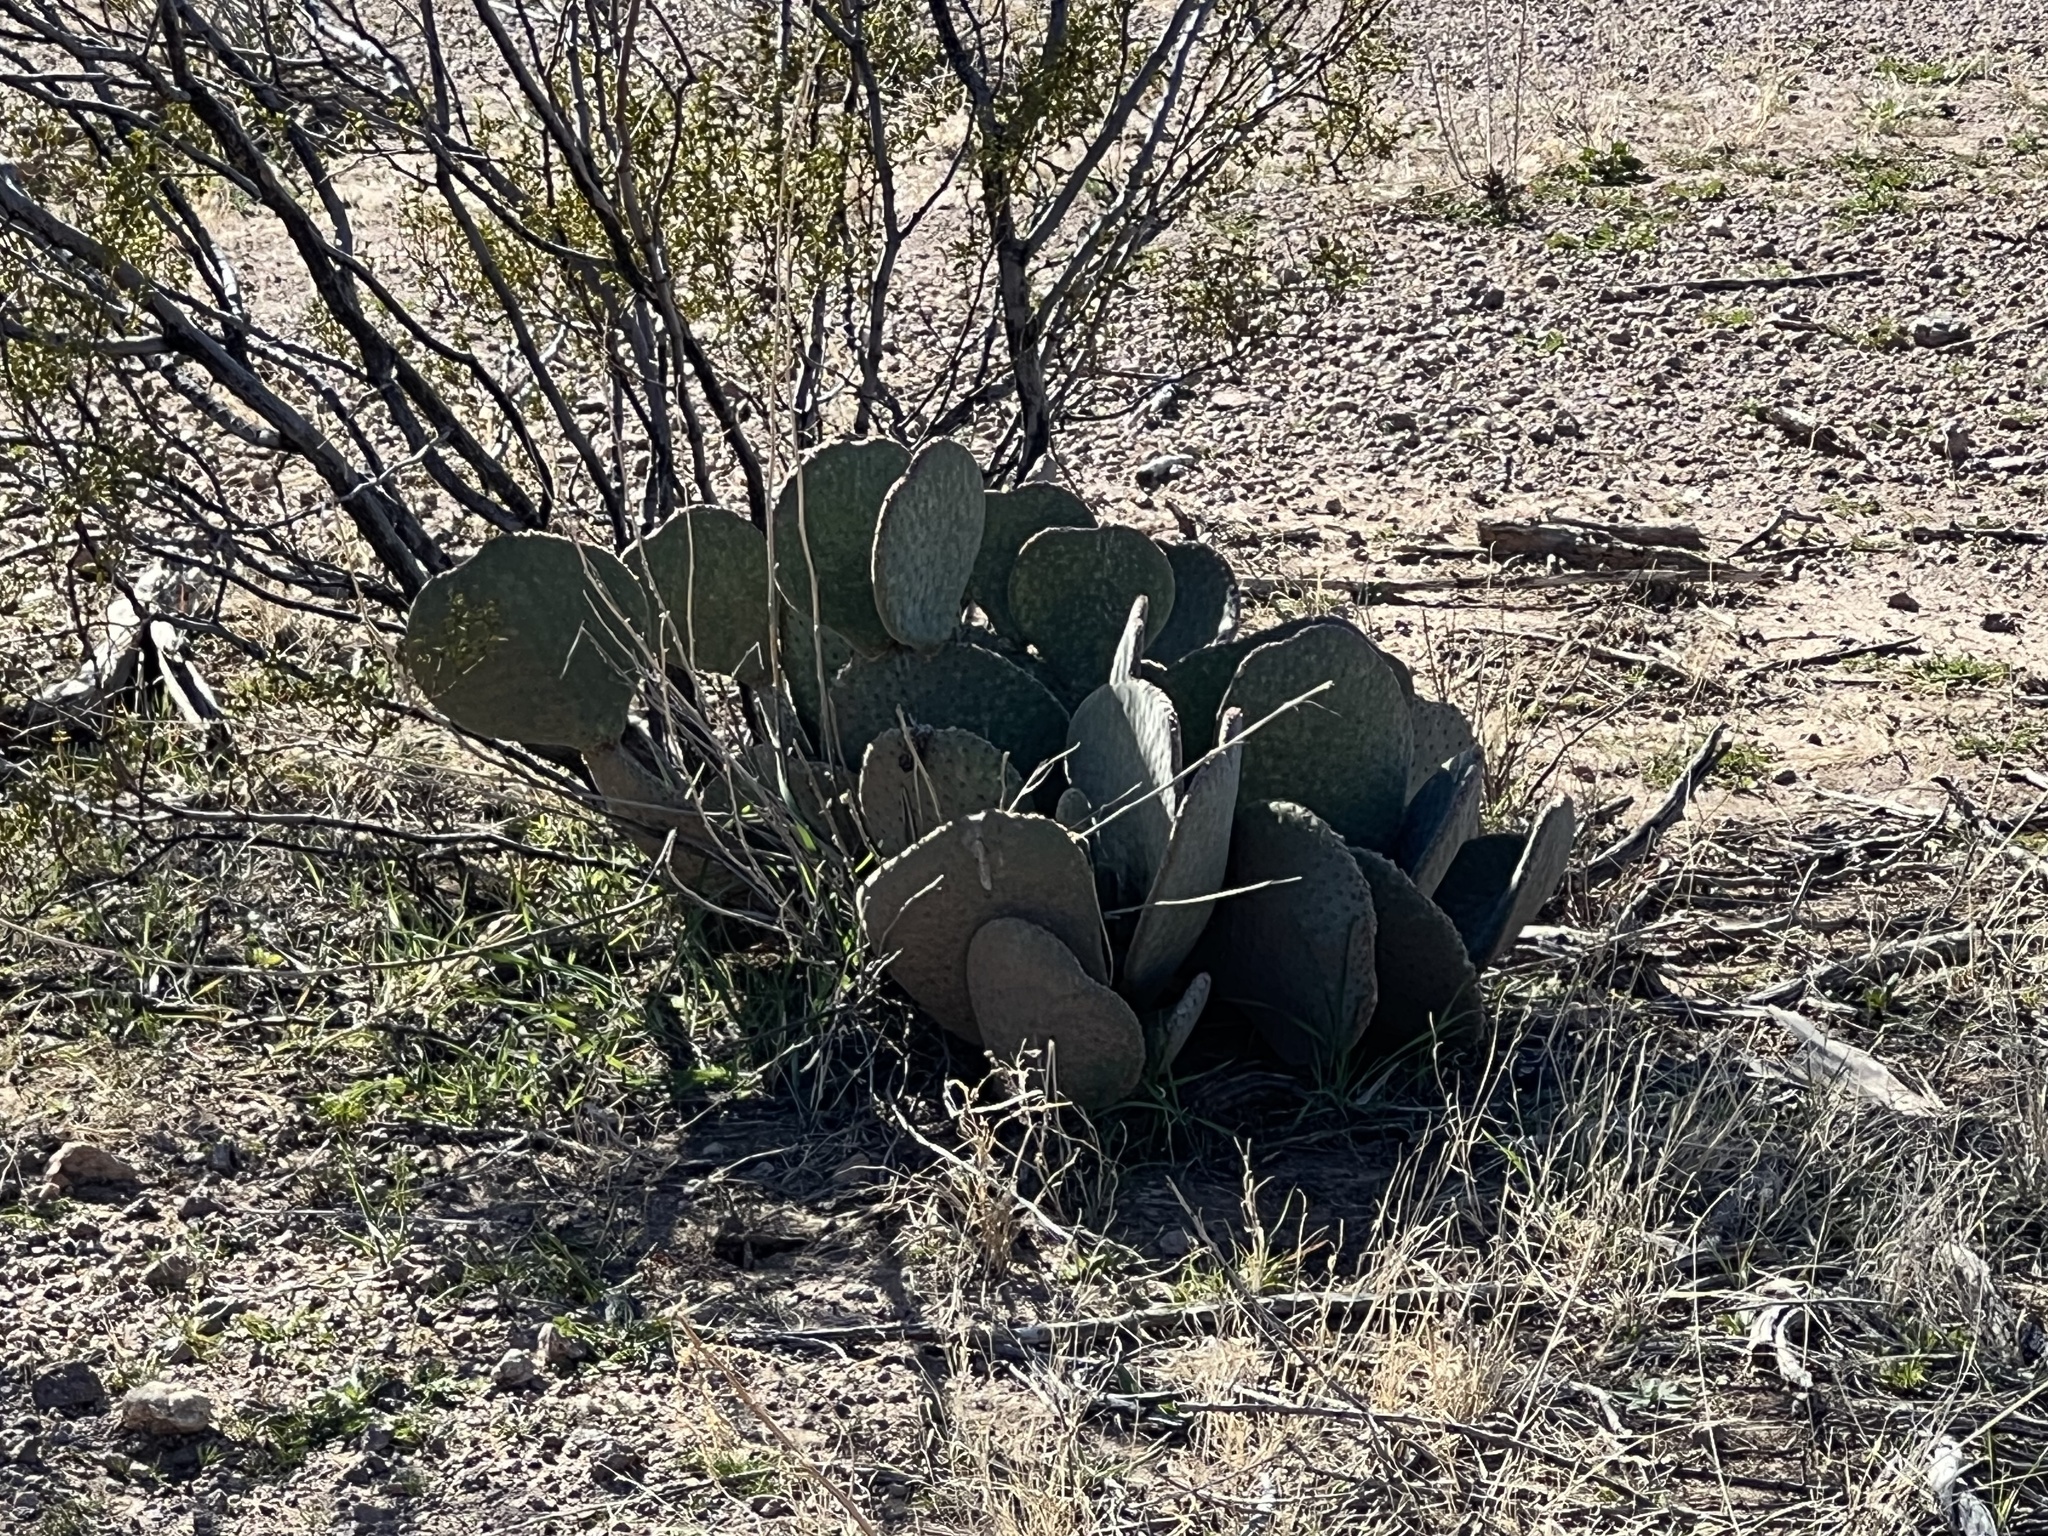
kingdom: Plantae
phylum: Tracheophyta
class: Magnoliopsida
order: Caryophyllales
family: Cactaceae
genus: Opuntia
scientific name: Opuntia basilaris
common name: Beavertail prickly-pear
